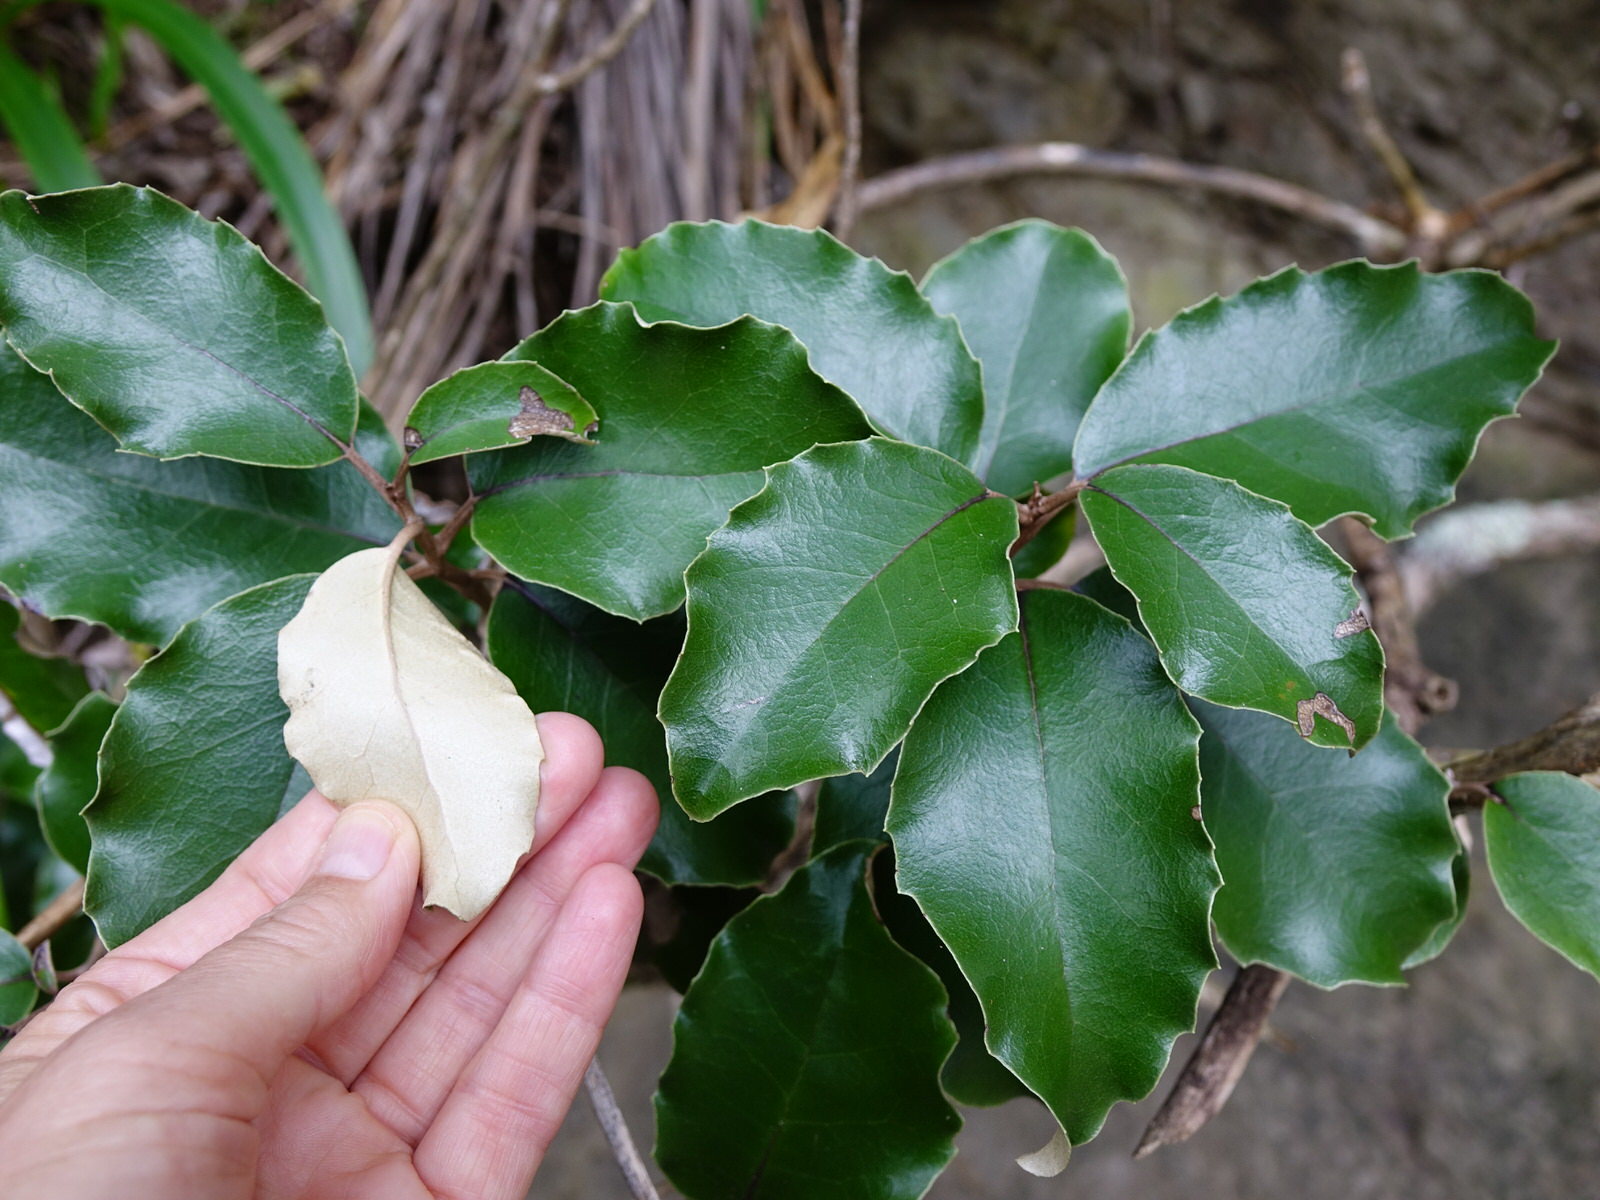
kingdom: Plantae
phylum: Tracheophyta
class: Magnoliopsida
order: Asterales
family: Asteraceae
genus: Olearia
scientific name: Olearia furfuracea
